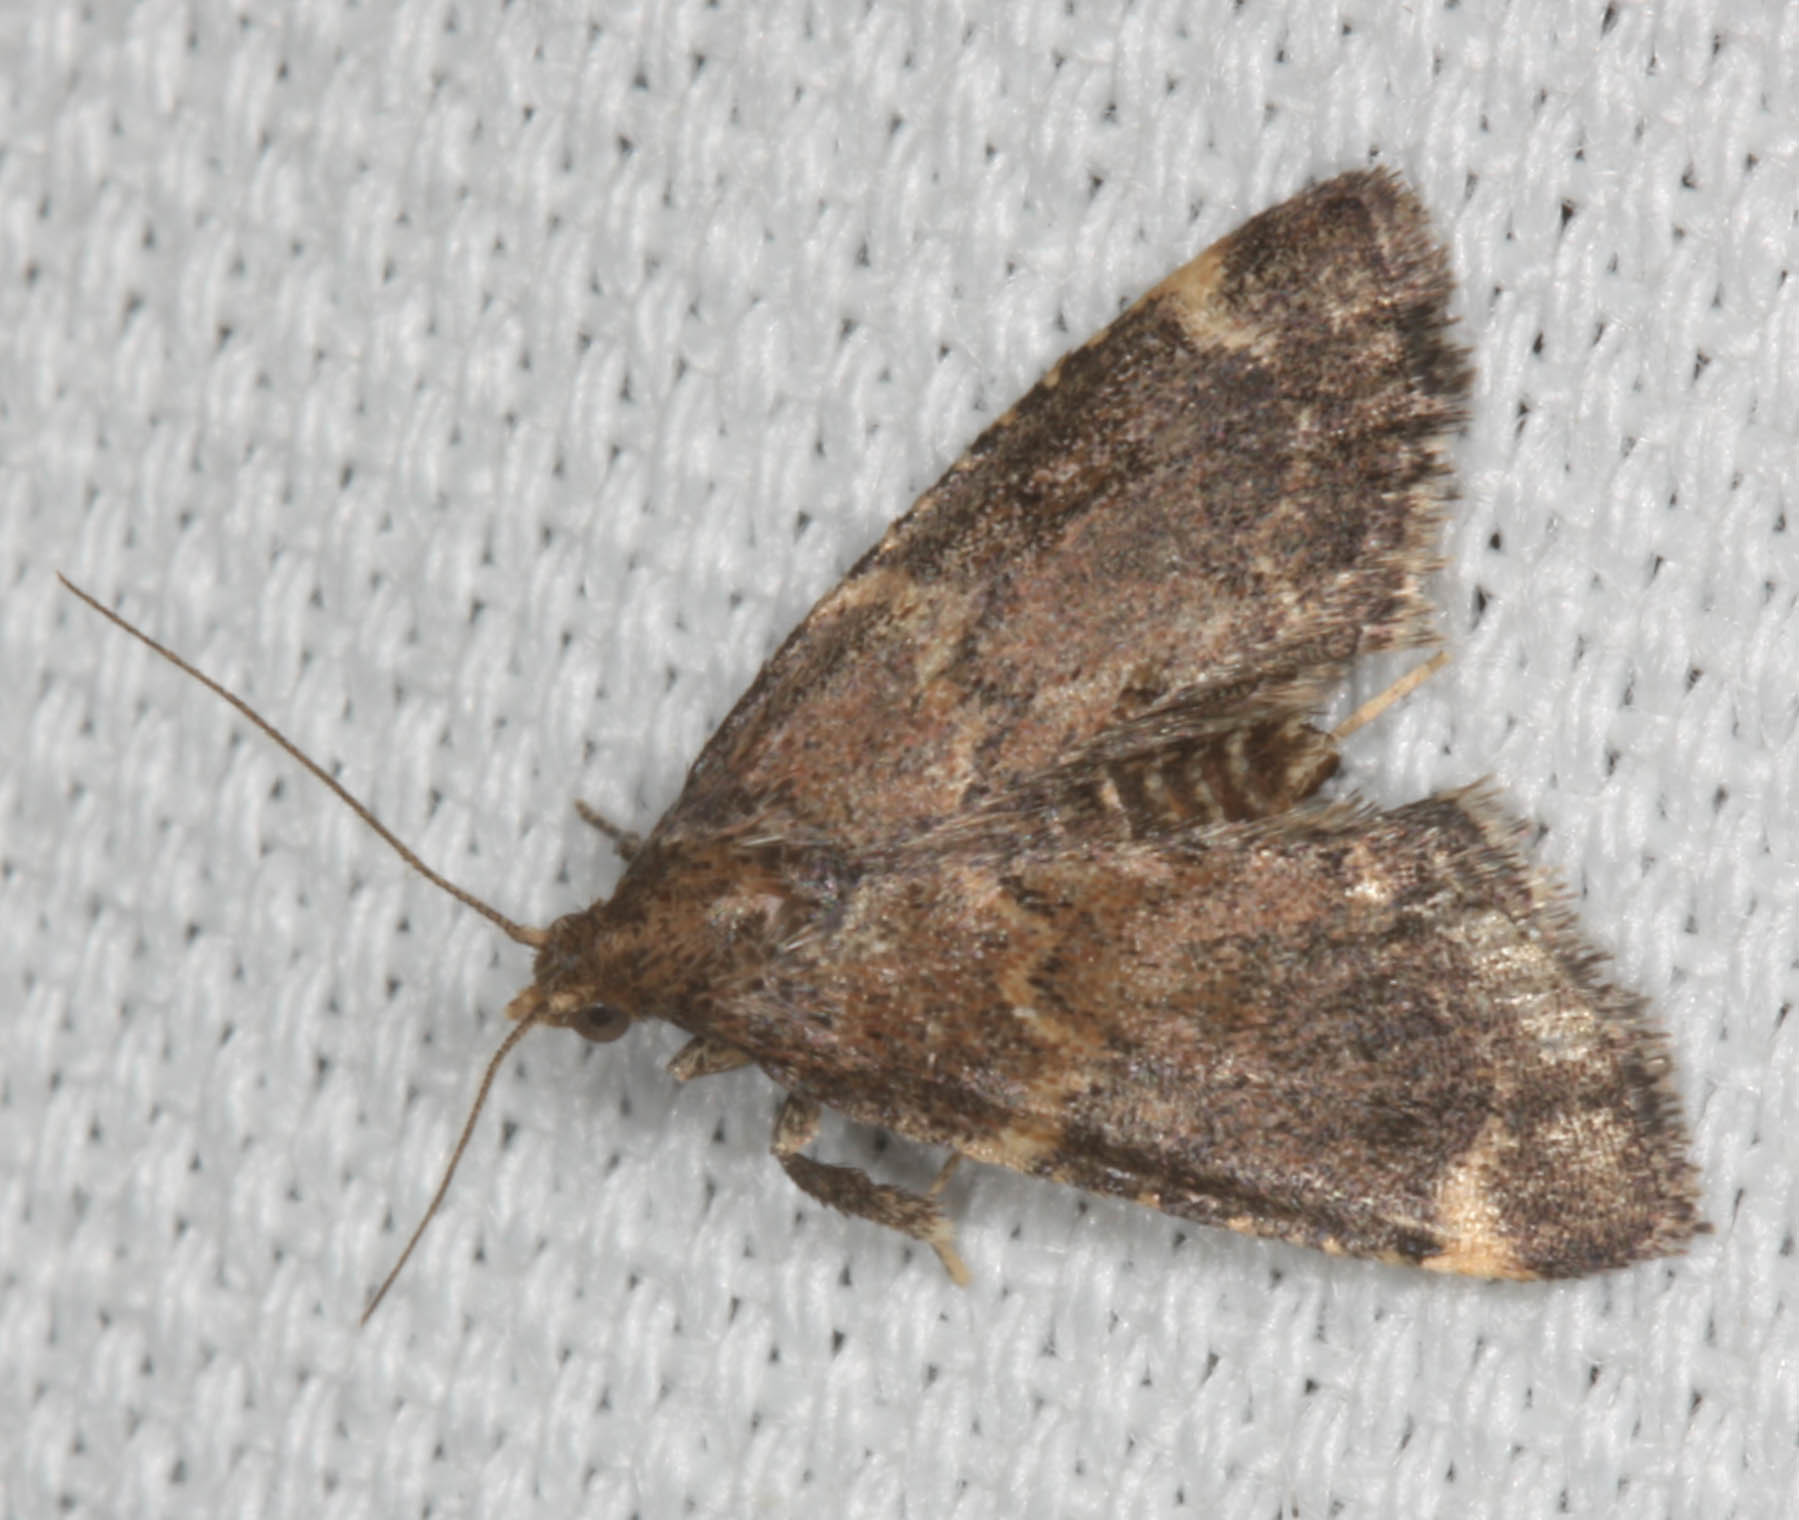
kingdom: Animalia
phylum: Arthropoda
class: Insecta
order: Lepidoptera
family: Pyralidae
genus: Hypsopygia
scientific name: Hypsopygia phoezalis
